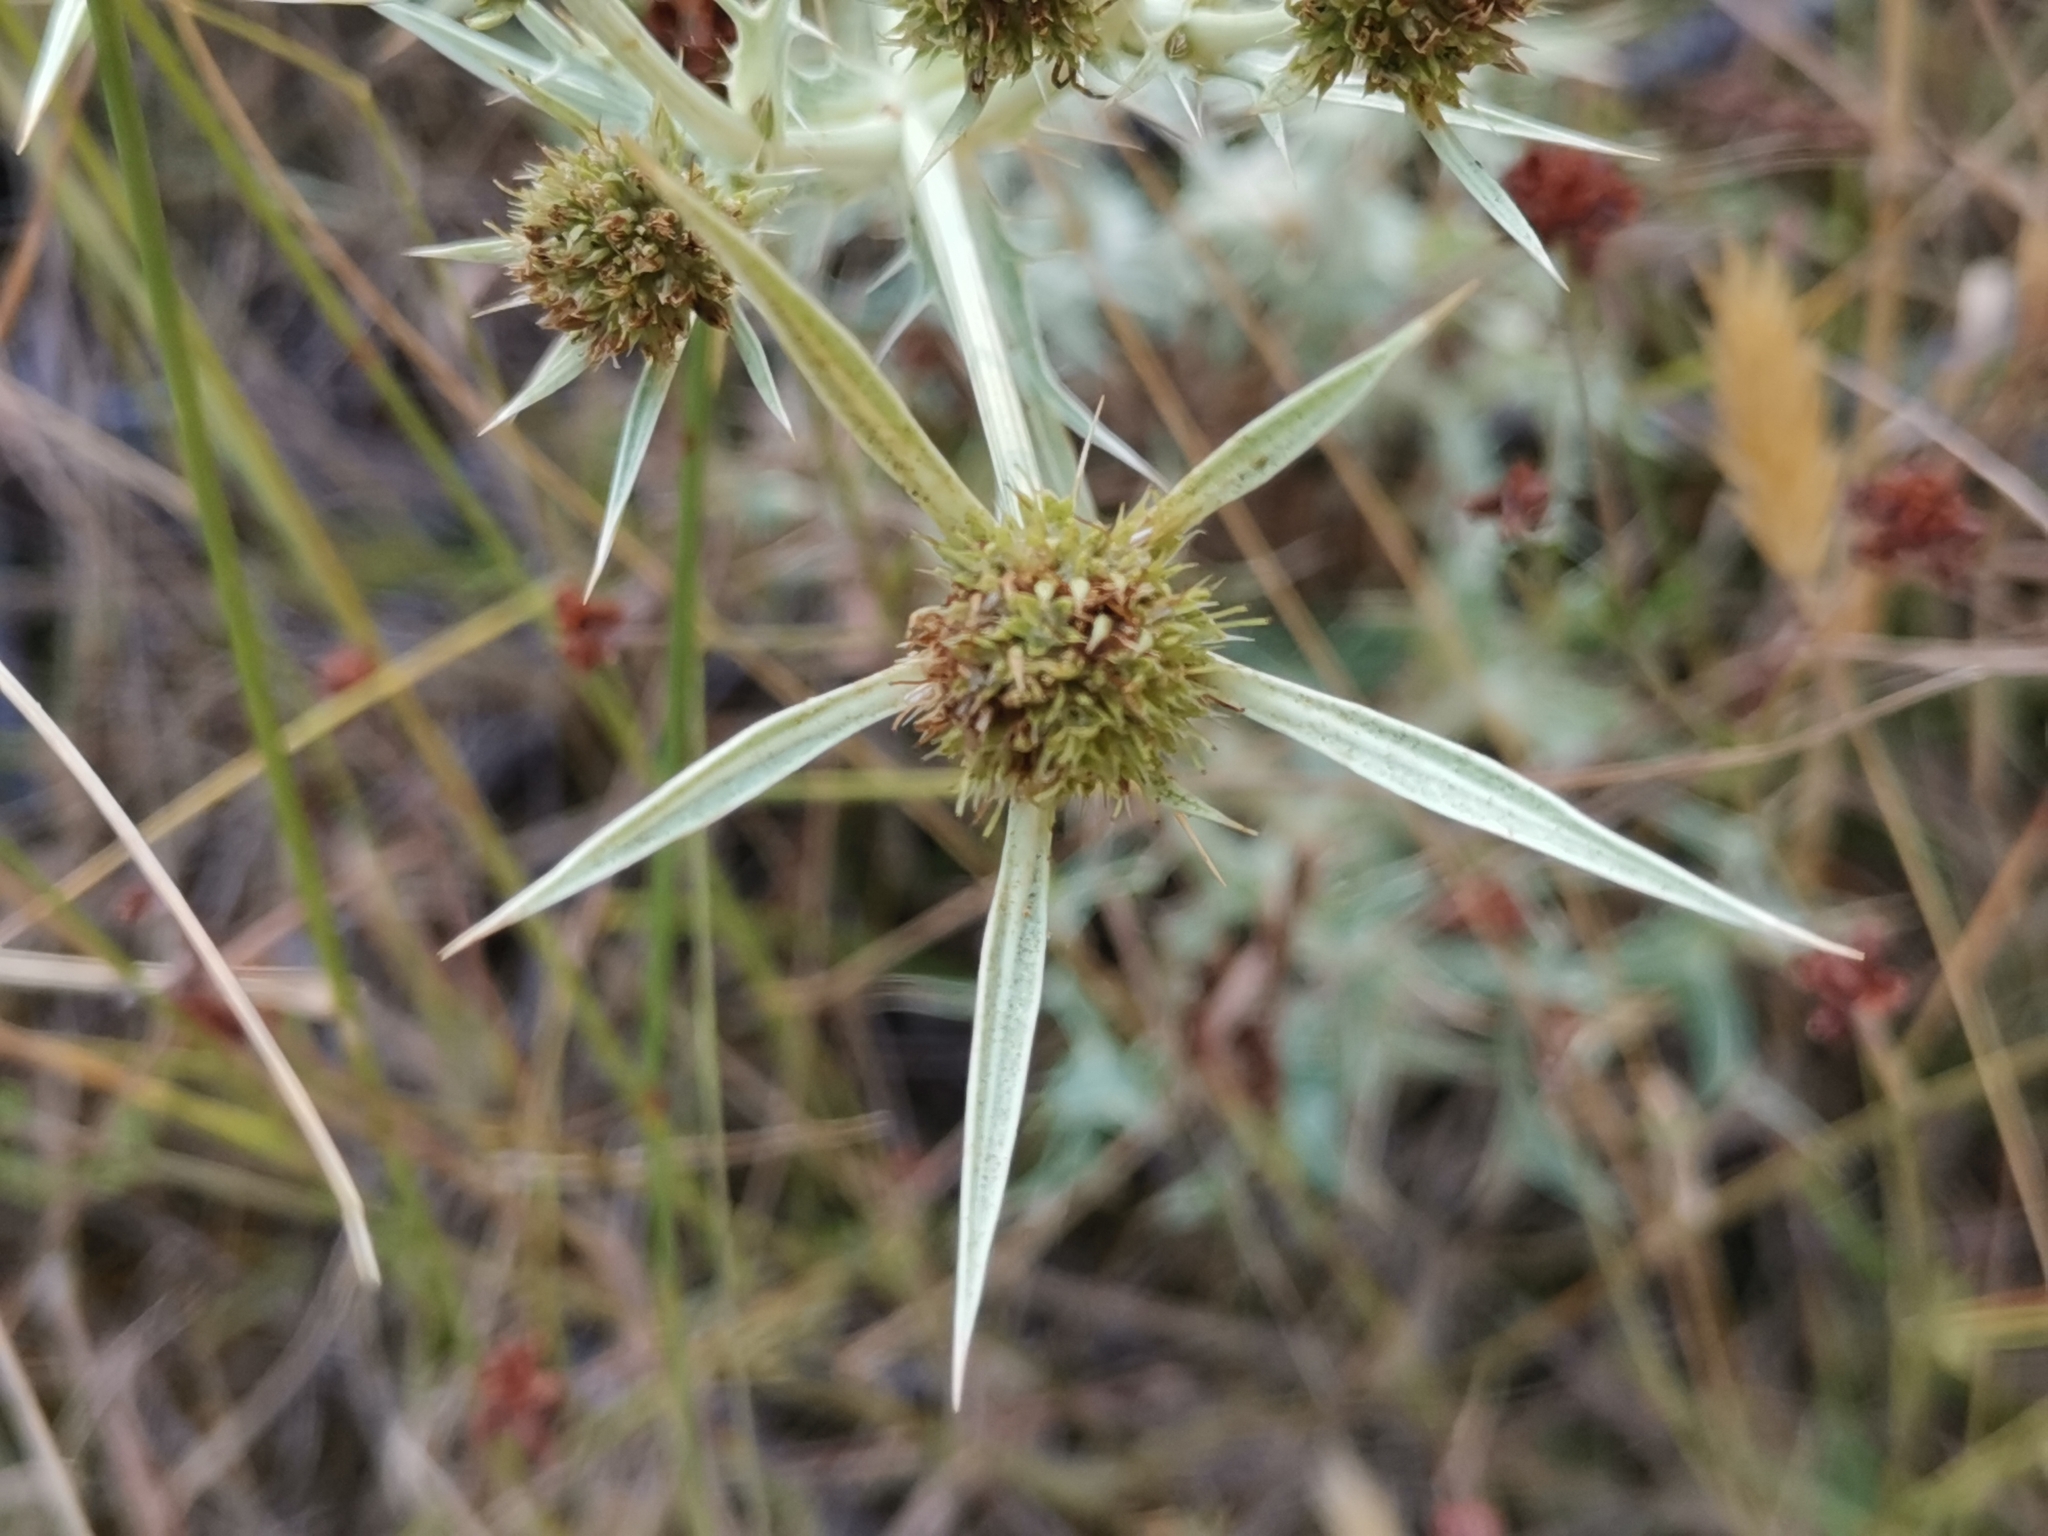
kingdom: Plantae
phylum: Tracheophyta
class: Magnoliopsida
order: Apiales
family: Apiaceae
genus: Eryngium
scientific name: Eryngium campestre
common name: Field eryngo
